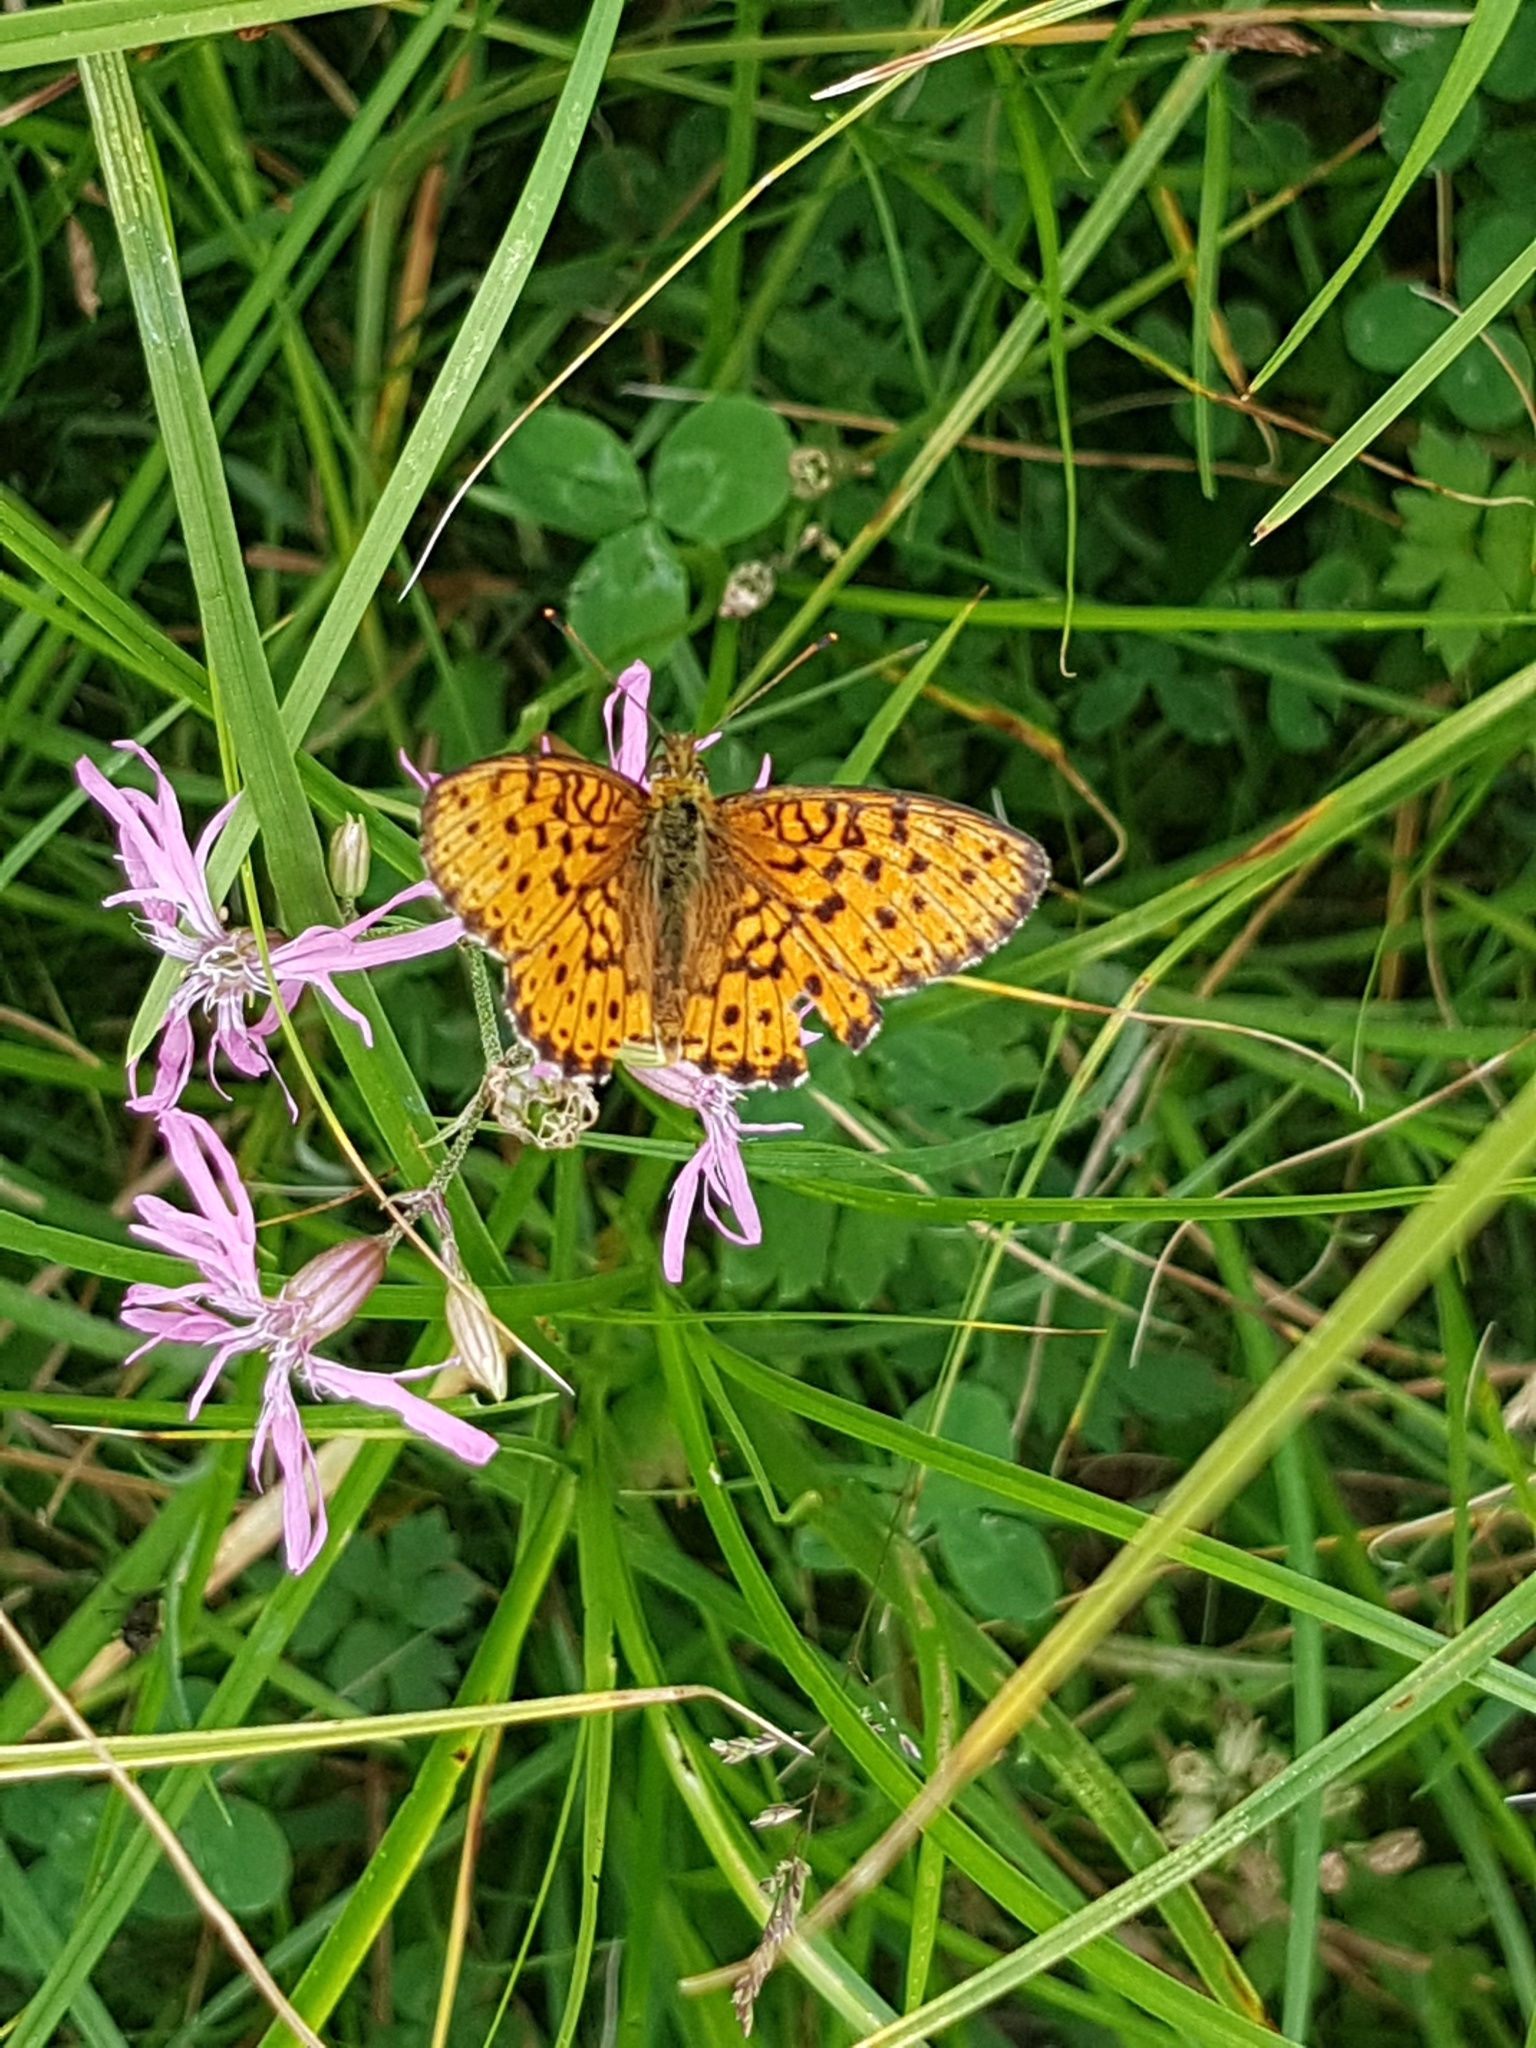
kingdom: Animalia
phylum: Arthropoda
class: Insecta
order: Lepidoptera
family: Nymphalidae
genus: Brenthis
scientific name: Brenthis ino
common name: Lesser marbled fritillary
